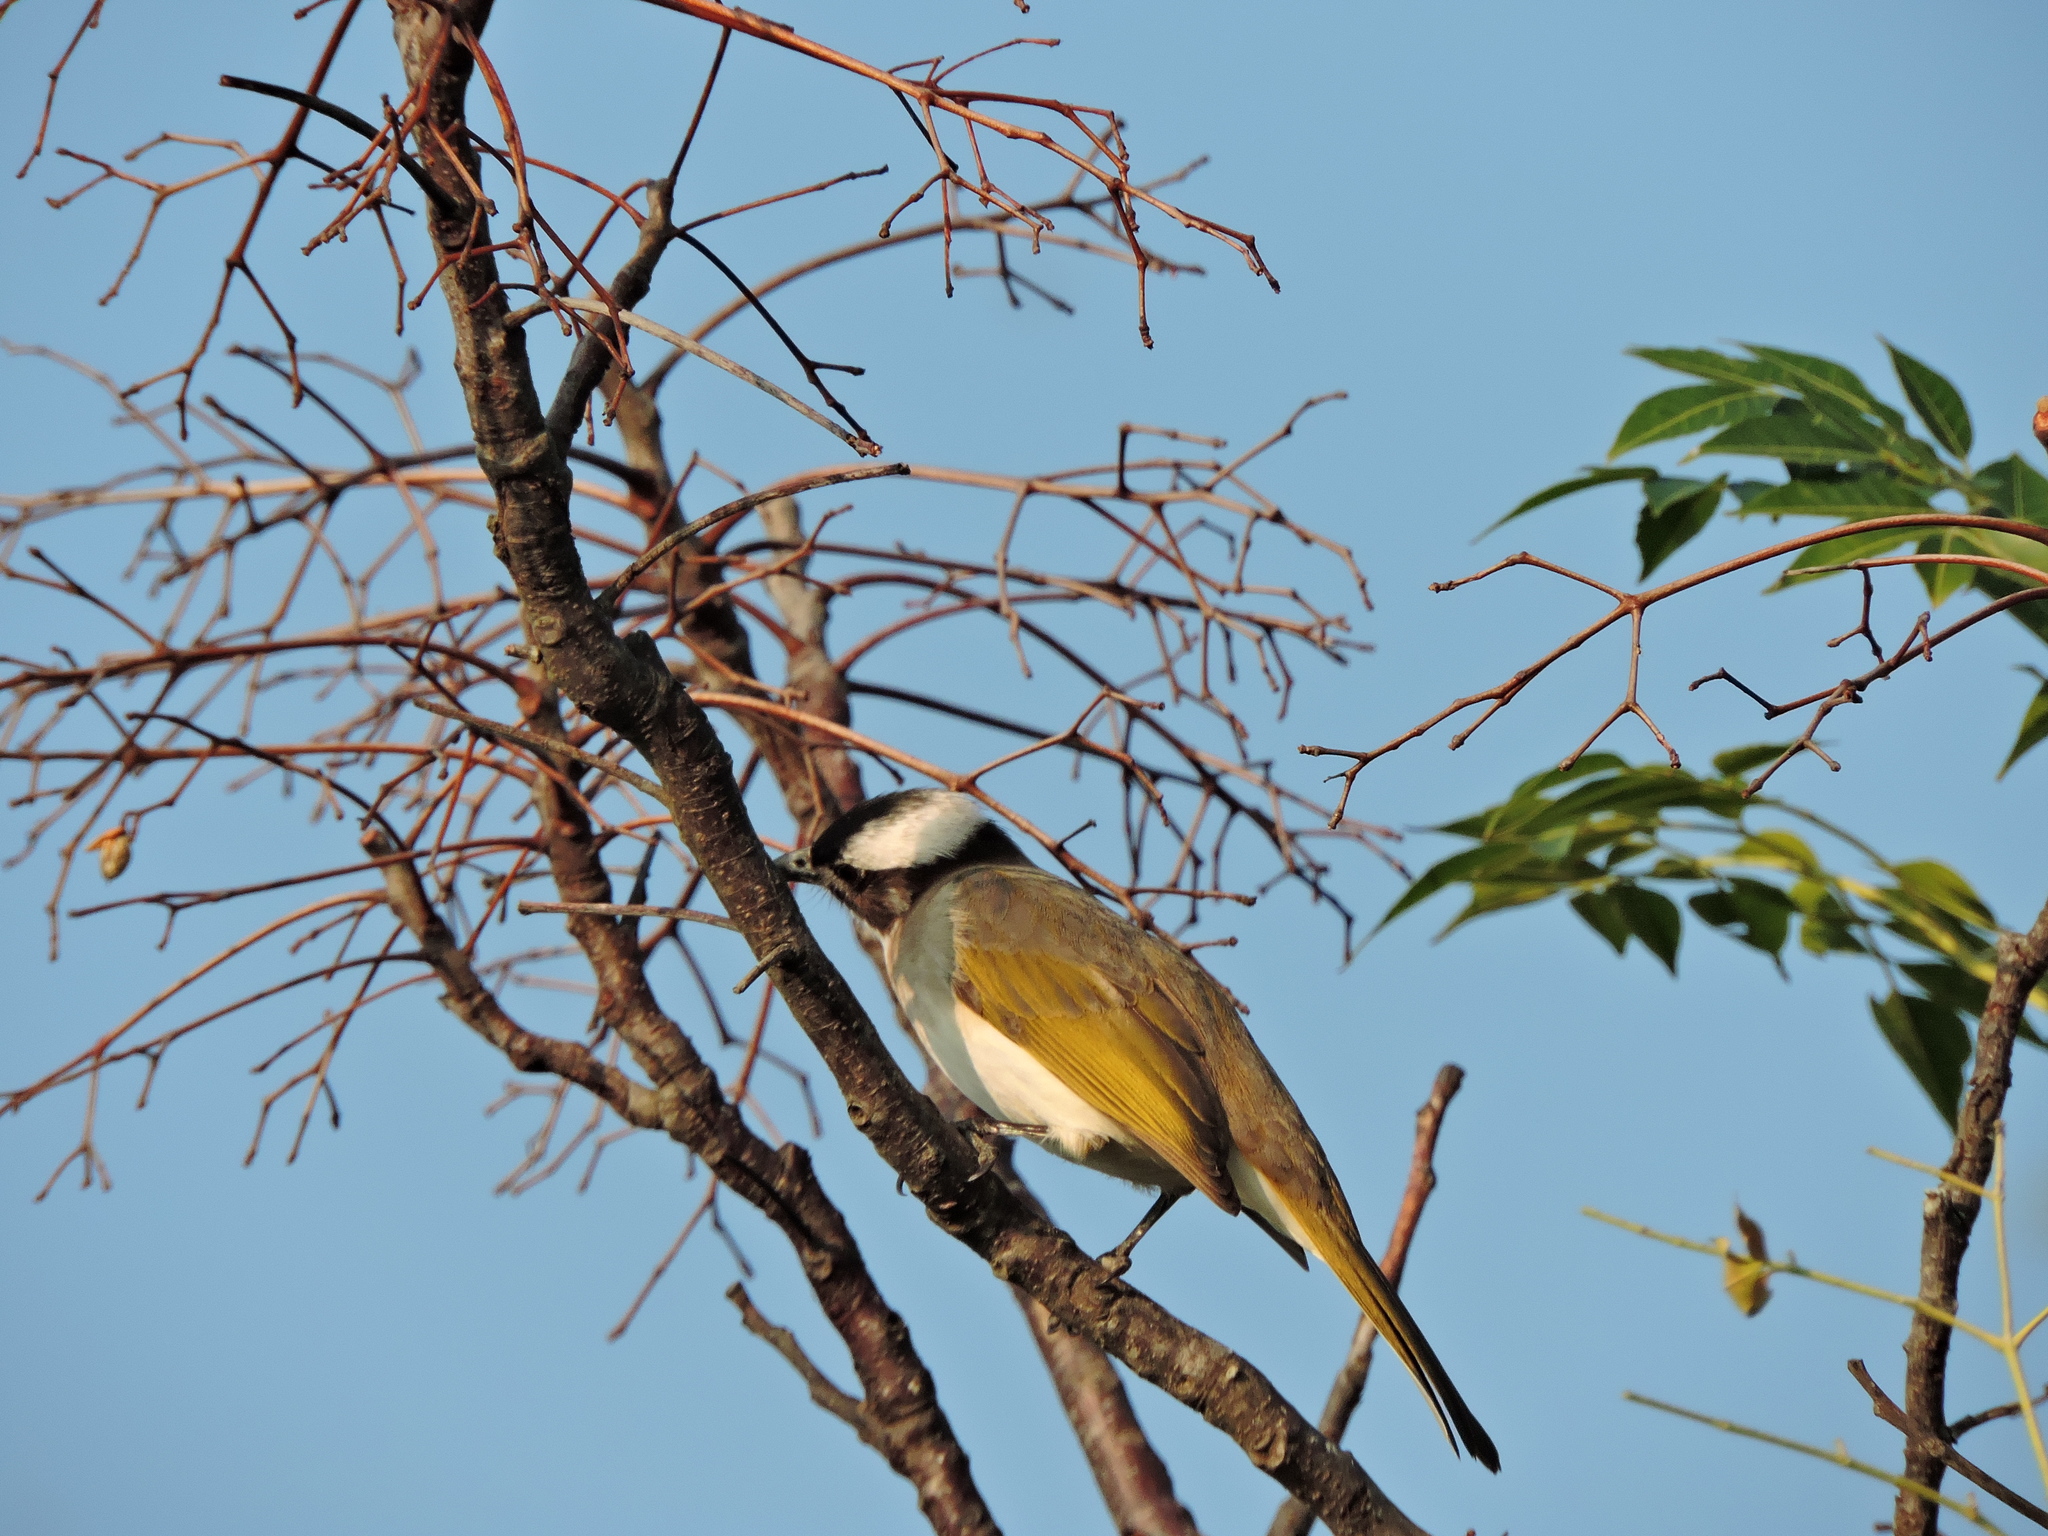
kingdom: Animalia
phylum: Chordata
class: Aves
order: Passeriformes
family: Pycnonotidae
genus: Pycnonotus
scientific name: Pycnonotus sinensis
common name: Light-vented bulbul
